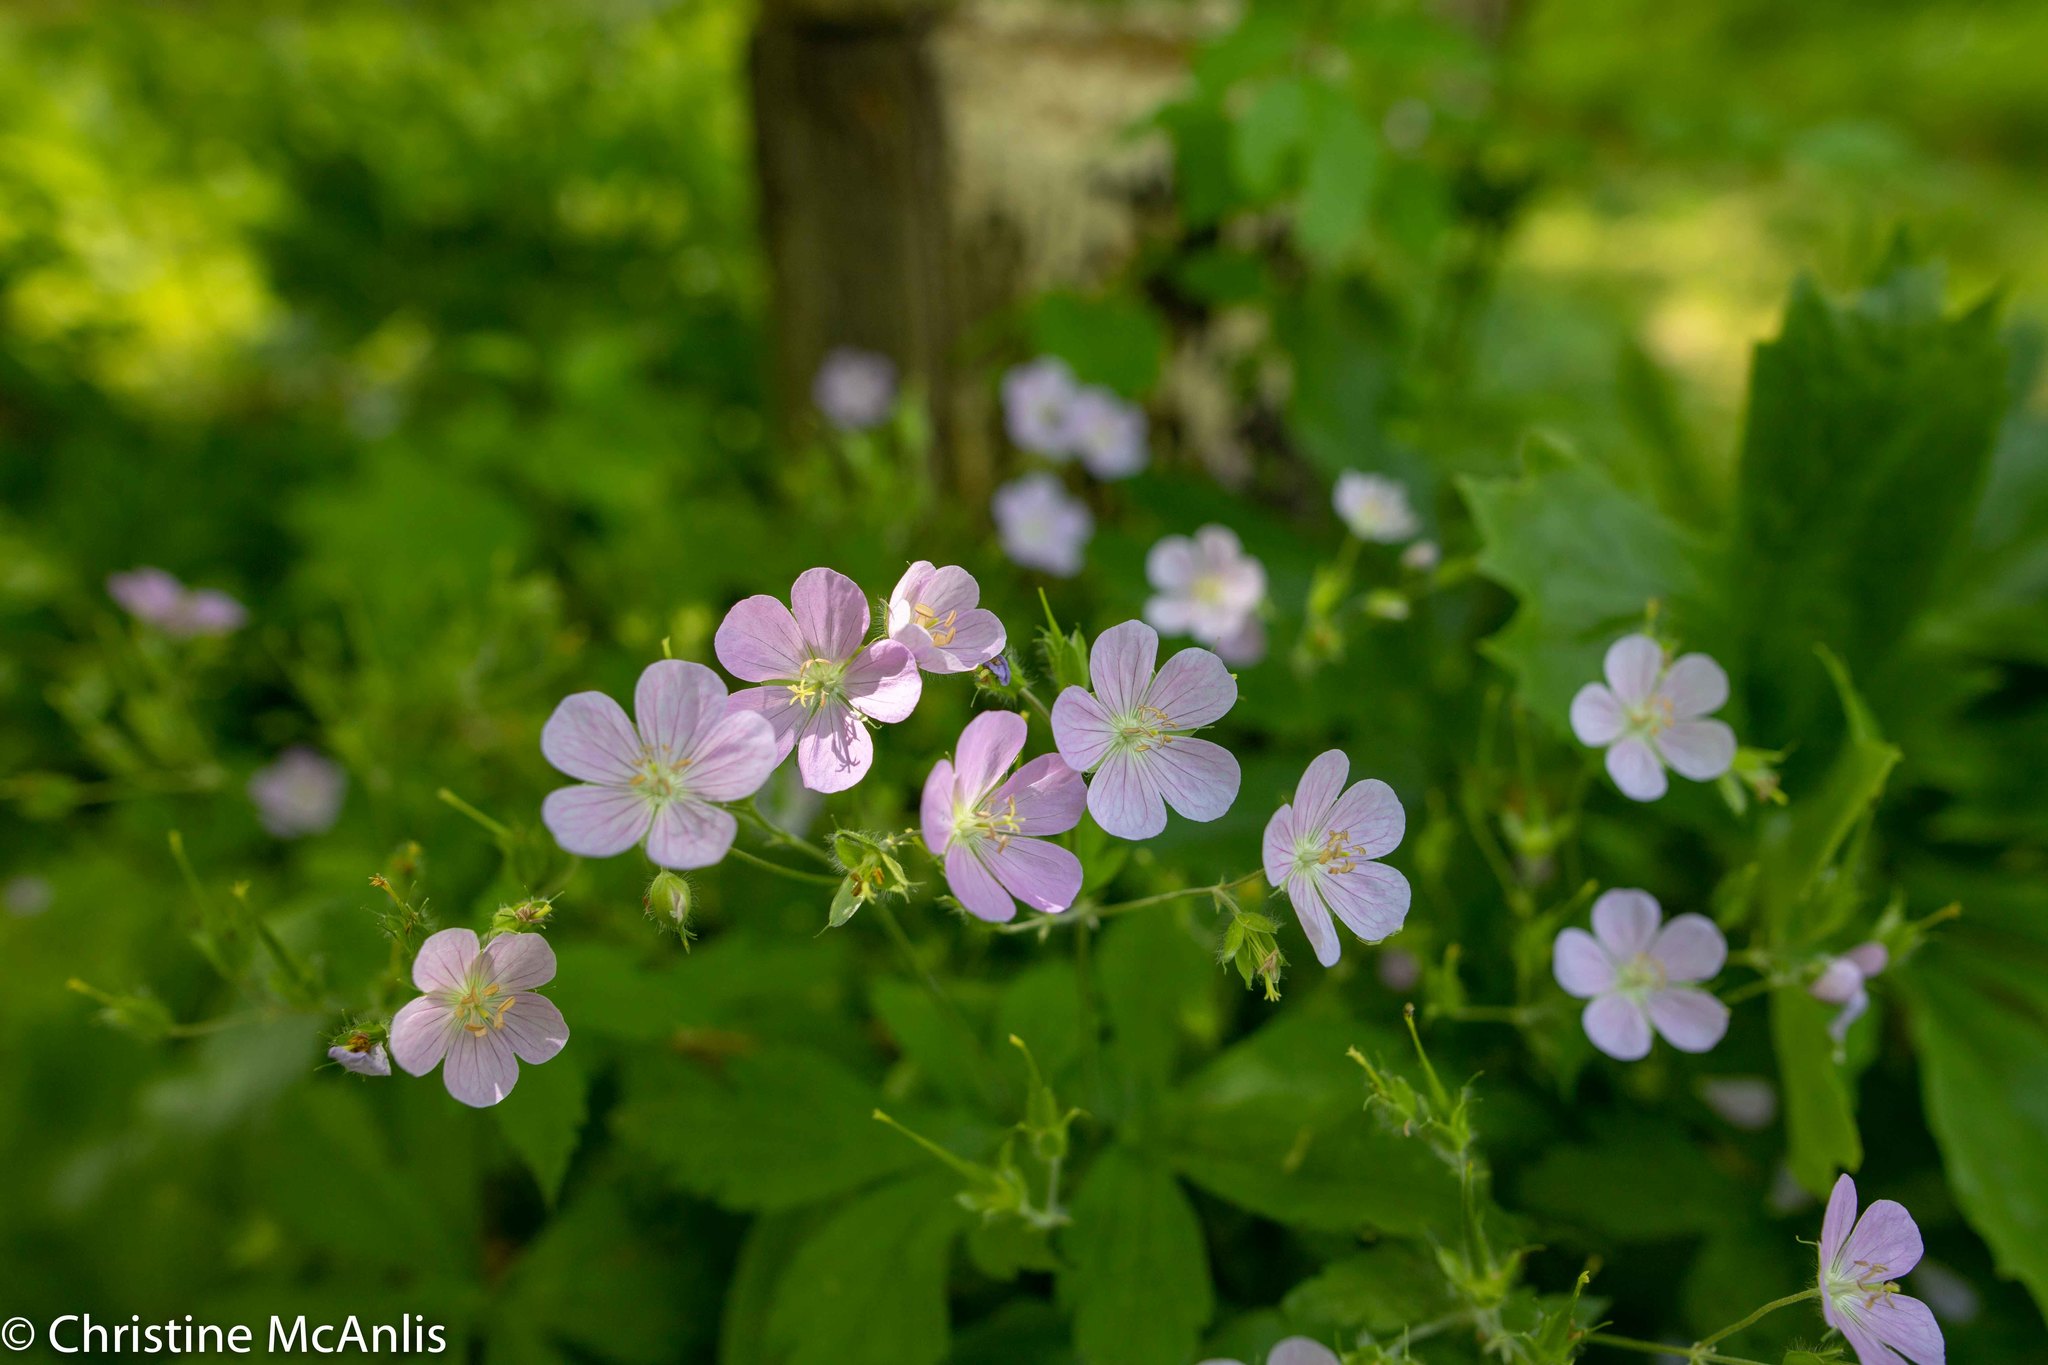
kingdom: Plantae
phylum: Tracheophyta
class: Magnoliopsida
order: Geraniales
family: Geraniaceae
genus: Geranium
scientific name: Geranium maculatum
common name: Spotted geranium
